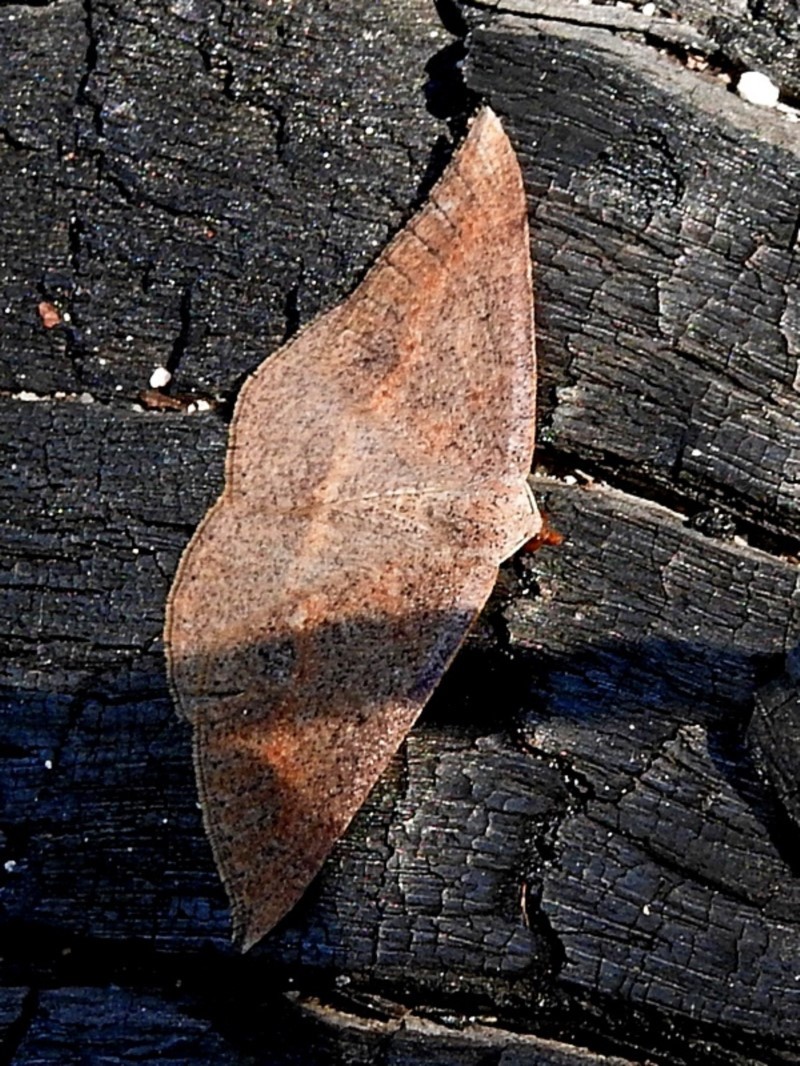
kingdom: Animalia
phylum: Arthropoda
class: Insecta
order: Lepidoptera
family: Geometridae
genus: Taxeotis
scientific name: Taxeotis perlinearia
